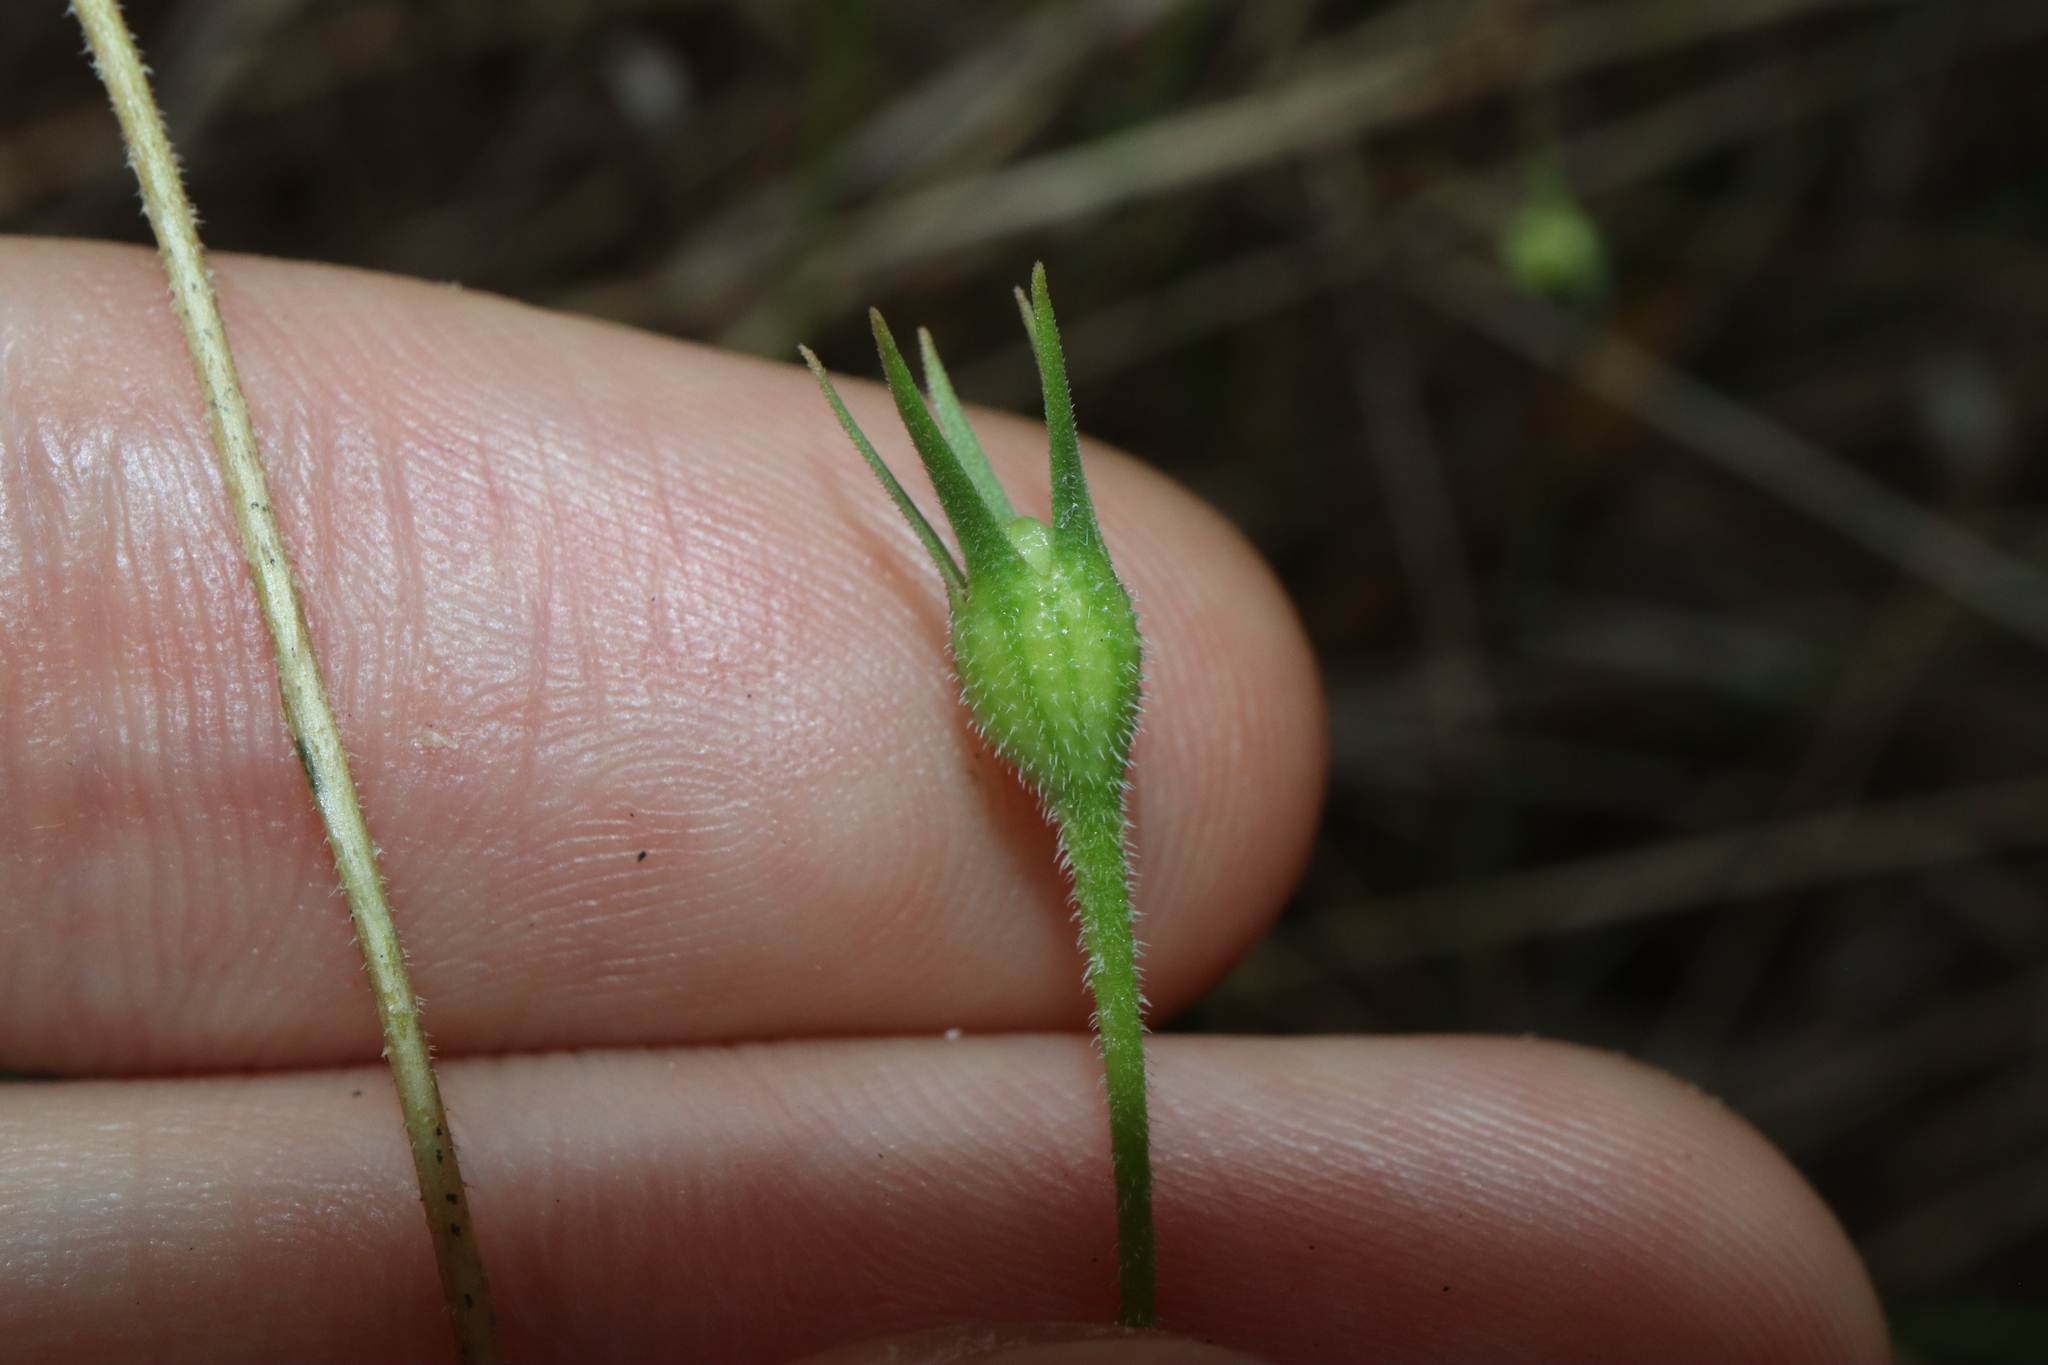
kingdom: Plantae
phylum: Tracheophyta
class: Magnoliopsida
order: Asterales
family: Campanulaceae
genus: Wahlenbergia
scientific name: Wahlenbergia stricta
